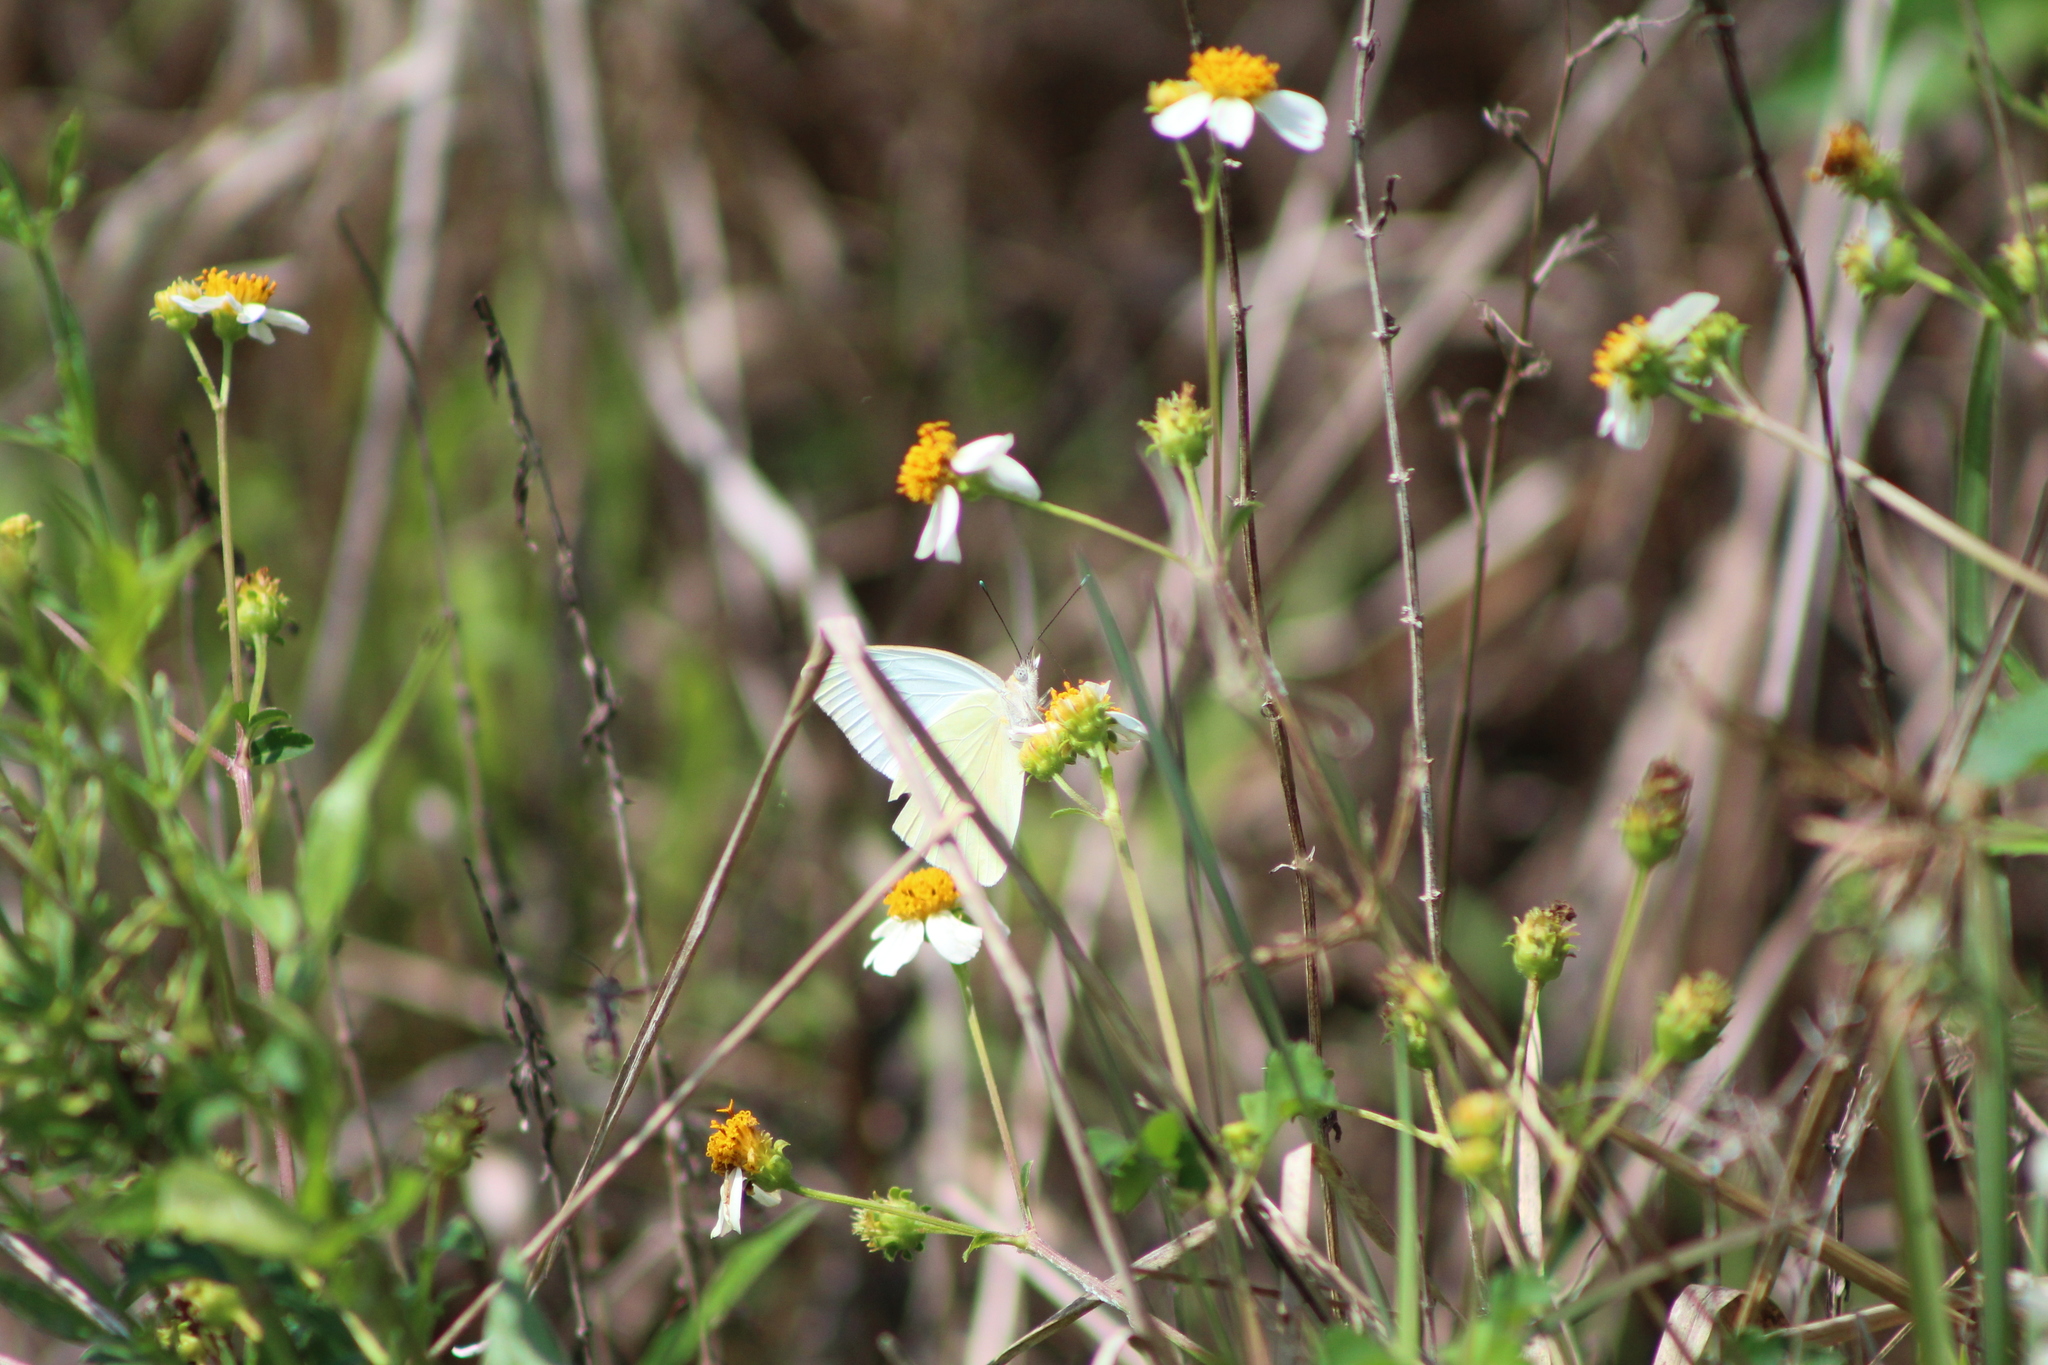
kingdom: Animalia
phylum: Arthropoda
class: Insecta
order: Lepidoptera
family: Pieridae
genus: Ascia
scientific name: Ascia monuste
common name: Great southern white
